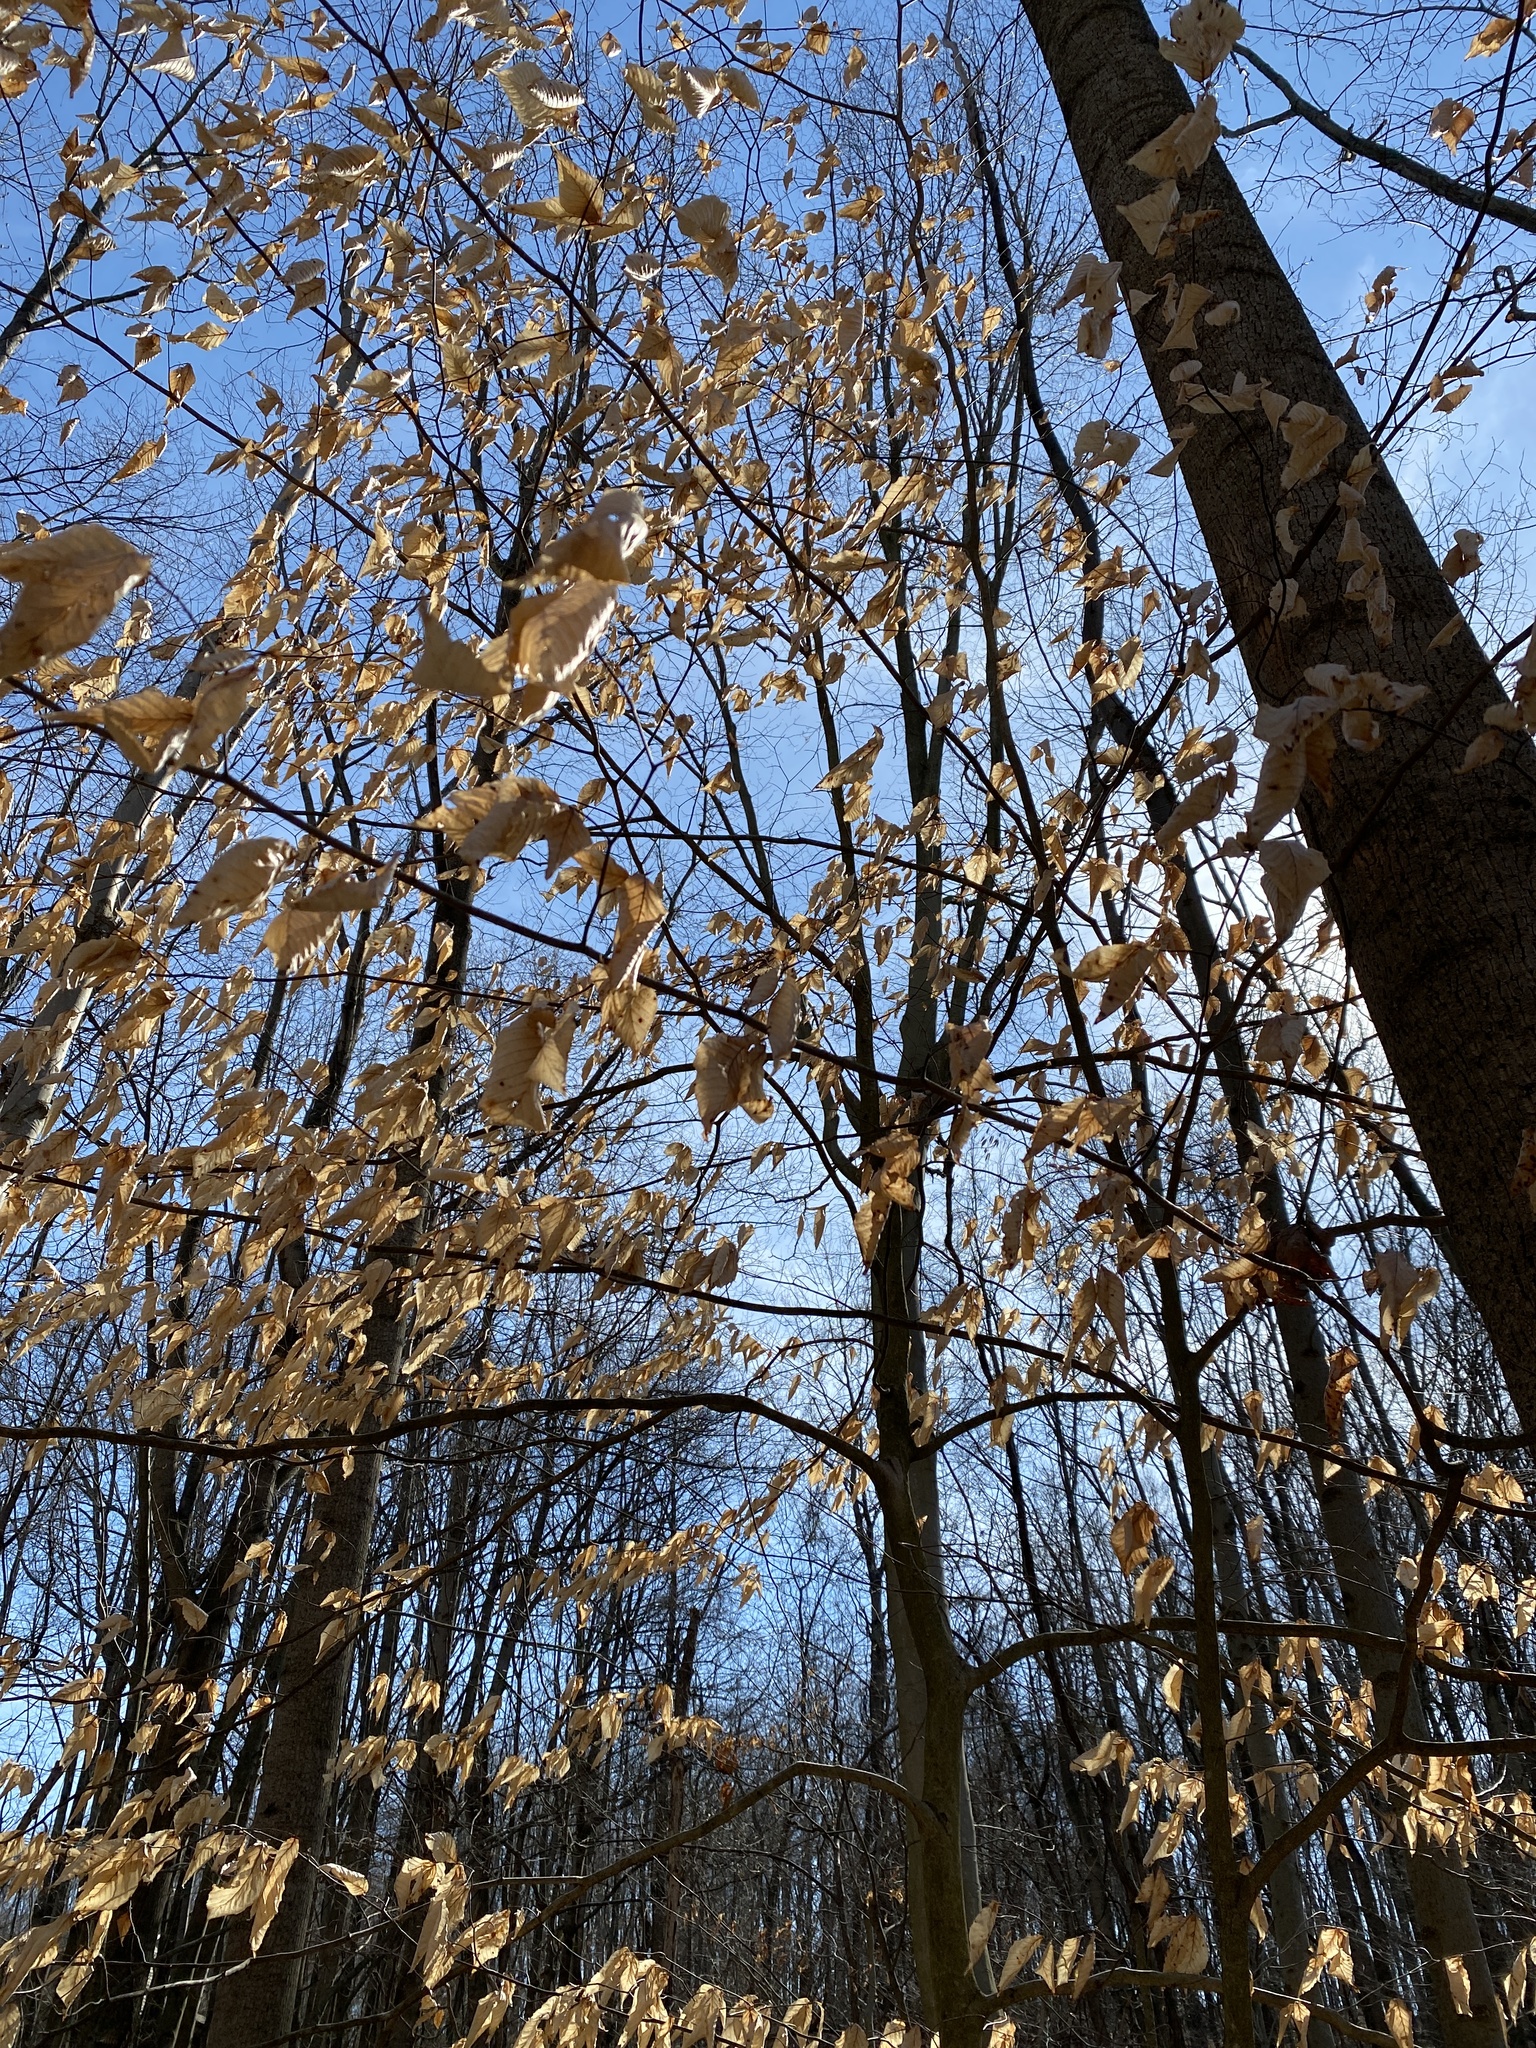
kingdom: Plantae
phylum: Tracheophyta
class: Magnoliopsida
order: Fagales
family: Fagaceae
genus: Fagus
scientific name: Fagus grandifolia
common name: American beech
